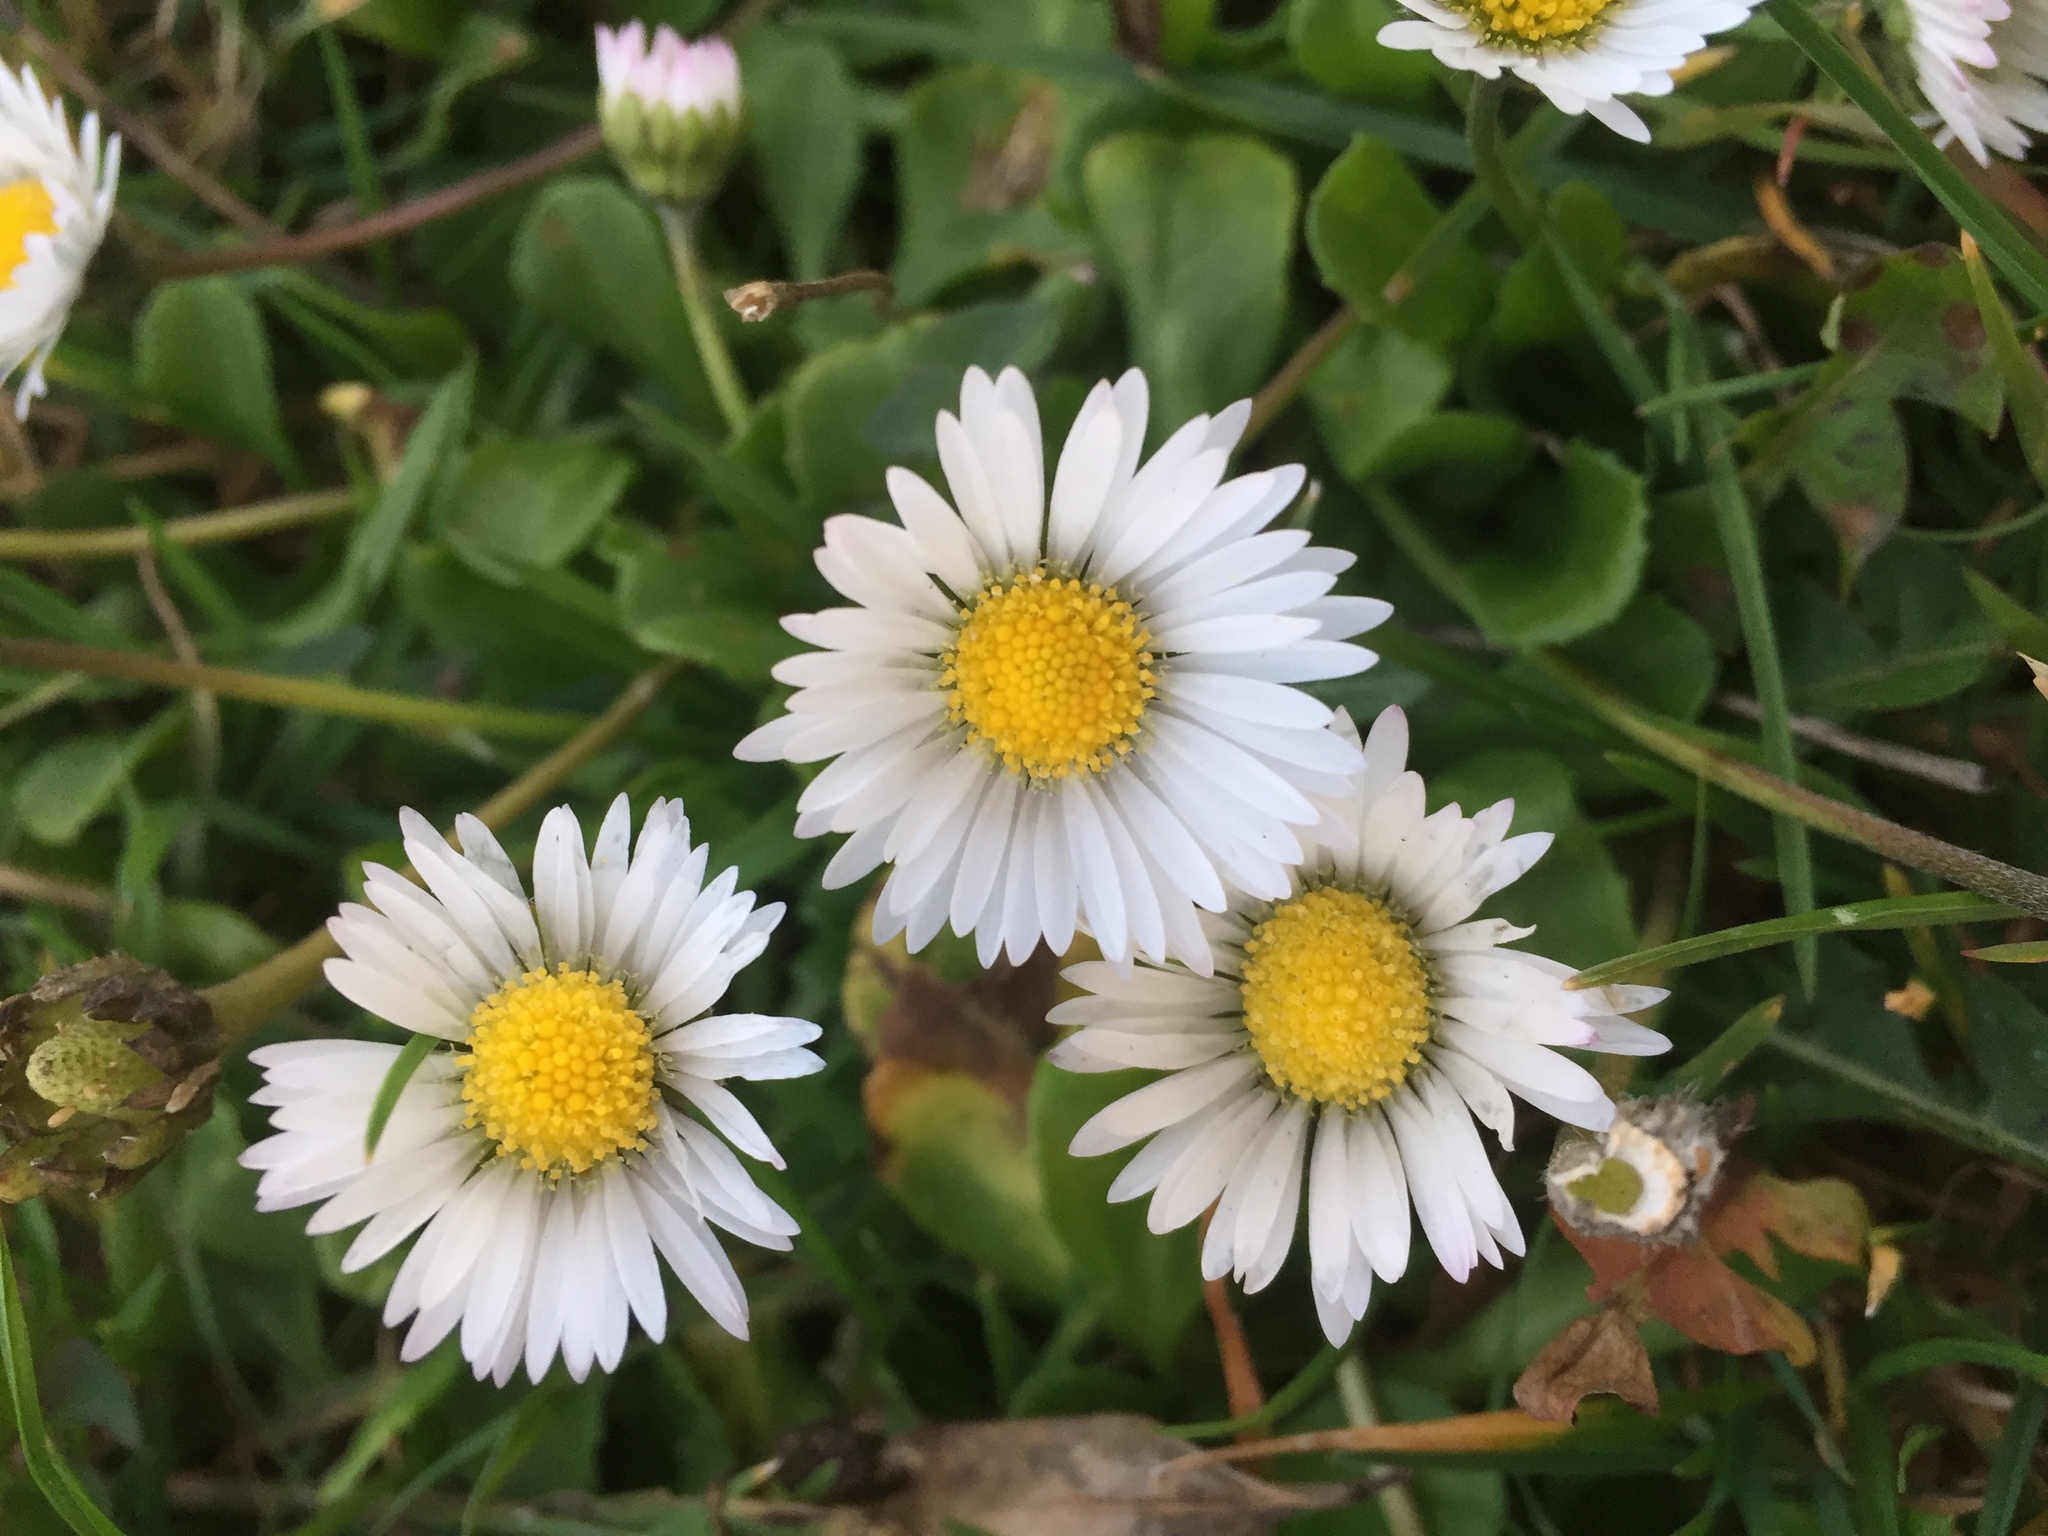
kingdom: Plantae
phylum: Tracheophyta
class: Magnoliopsida
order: Asterales
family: Asteraceae
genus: Bellis
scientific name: Bellis perennis
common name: Lawndaisy
